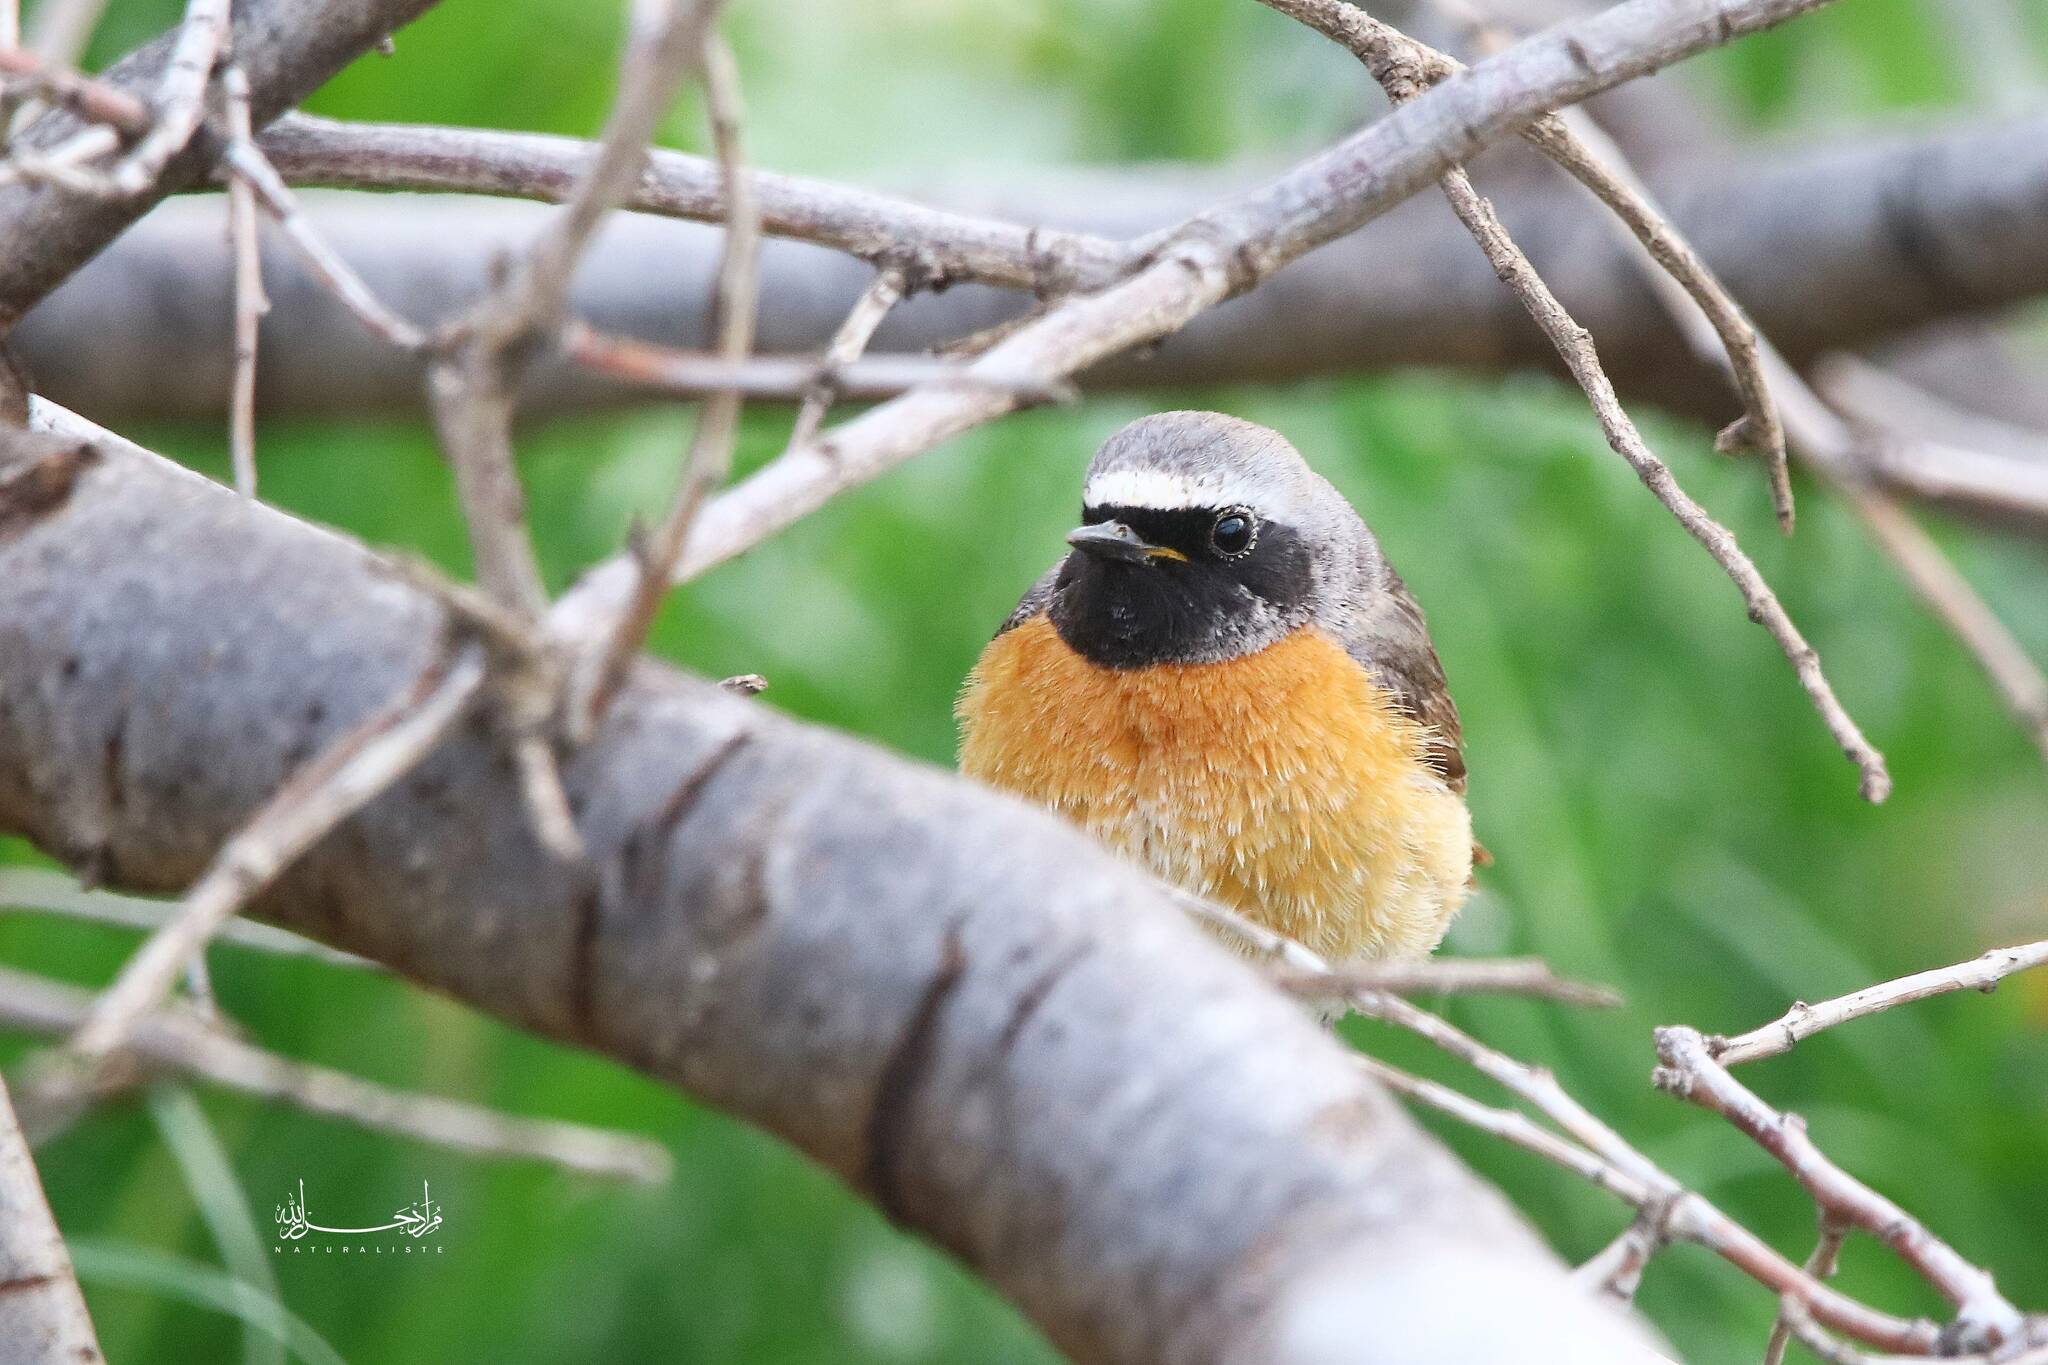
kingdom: Animalia
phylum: Chordata
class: Aves
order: Passeriformes
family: Muscicapidae
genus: Phoenicurus
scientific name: Phoenicurus phoenicurus
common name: Common redstart
